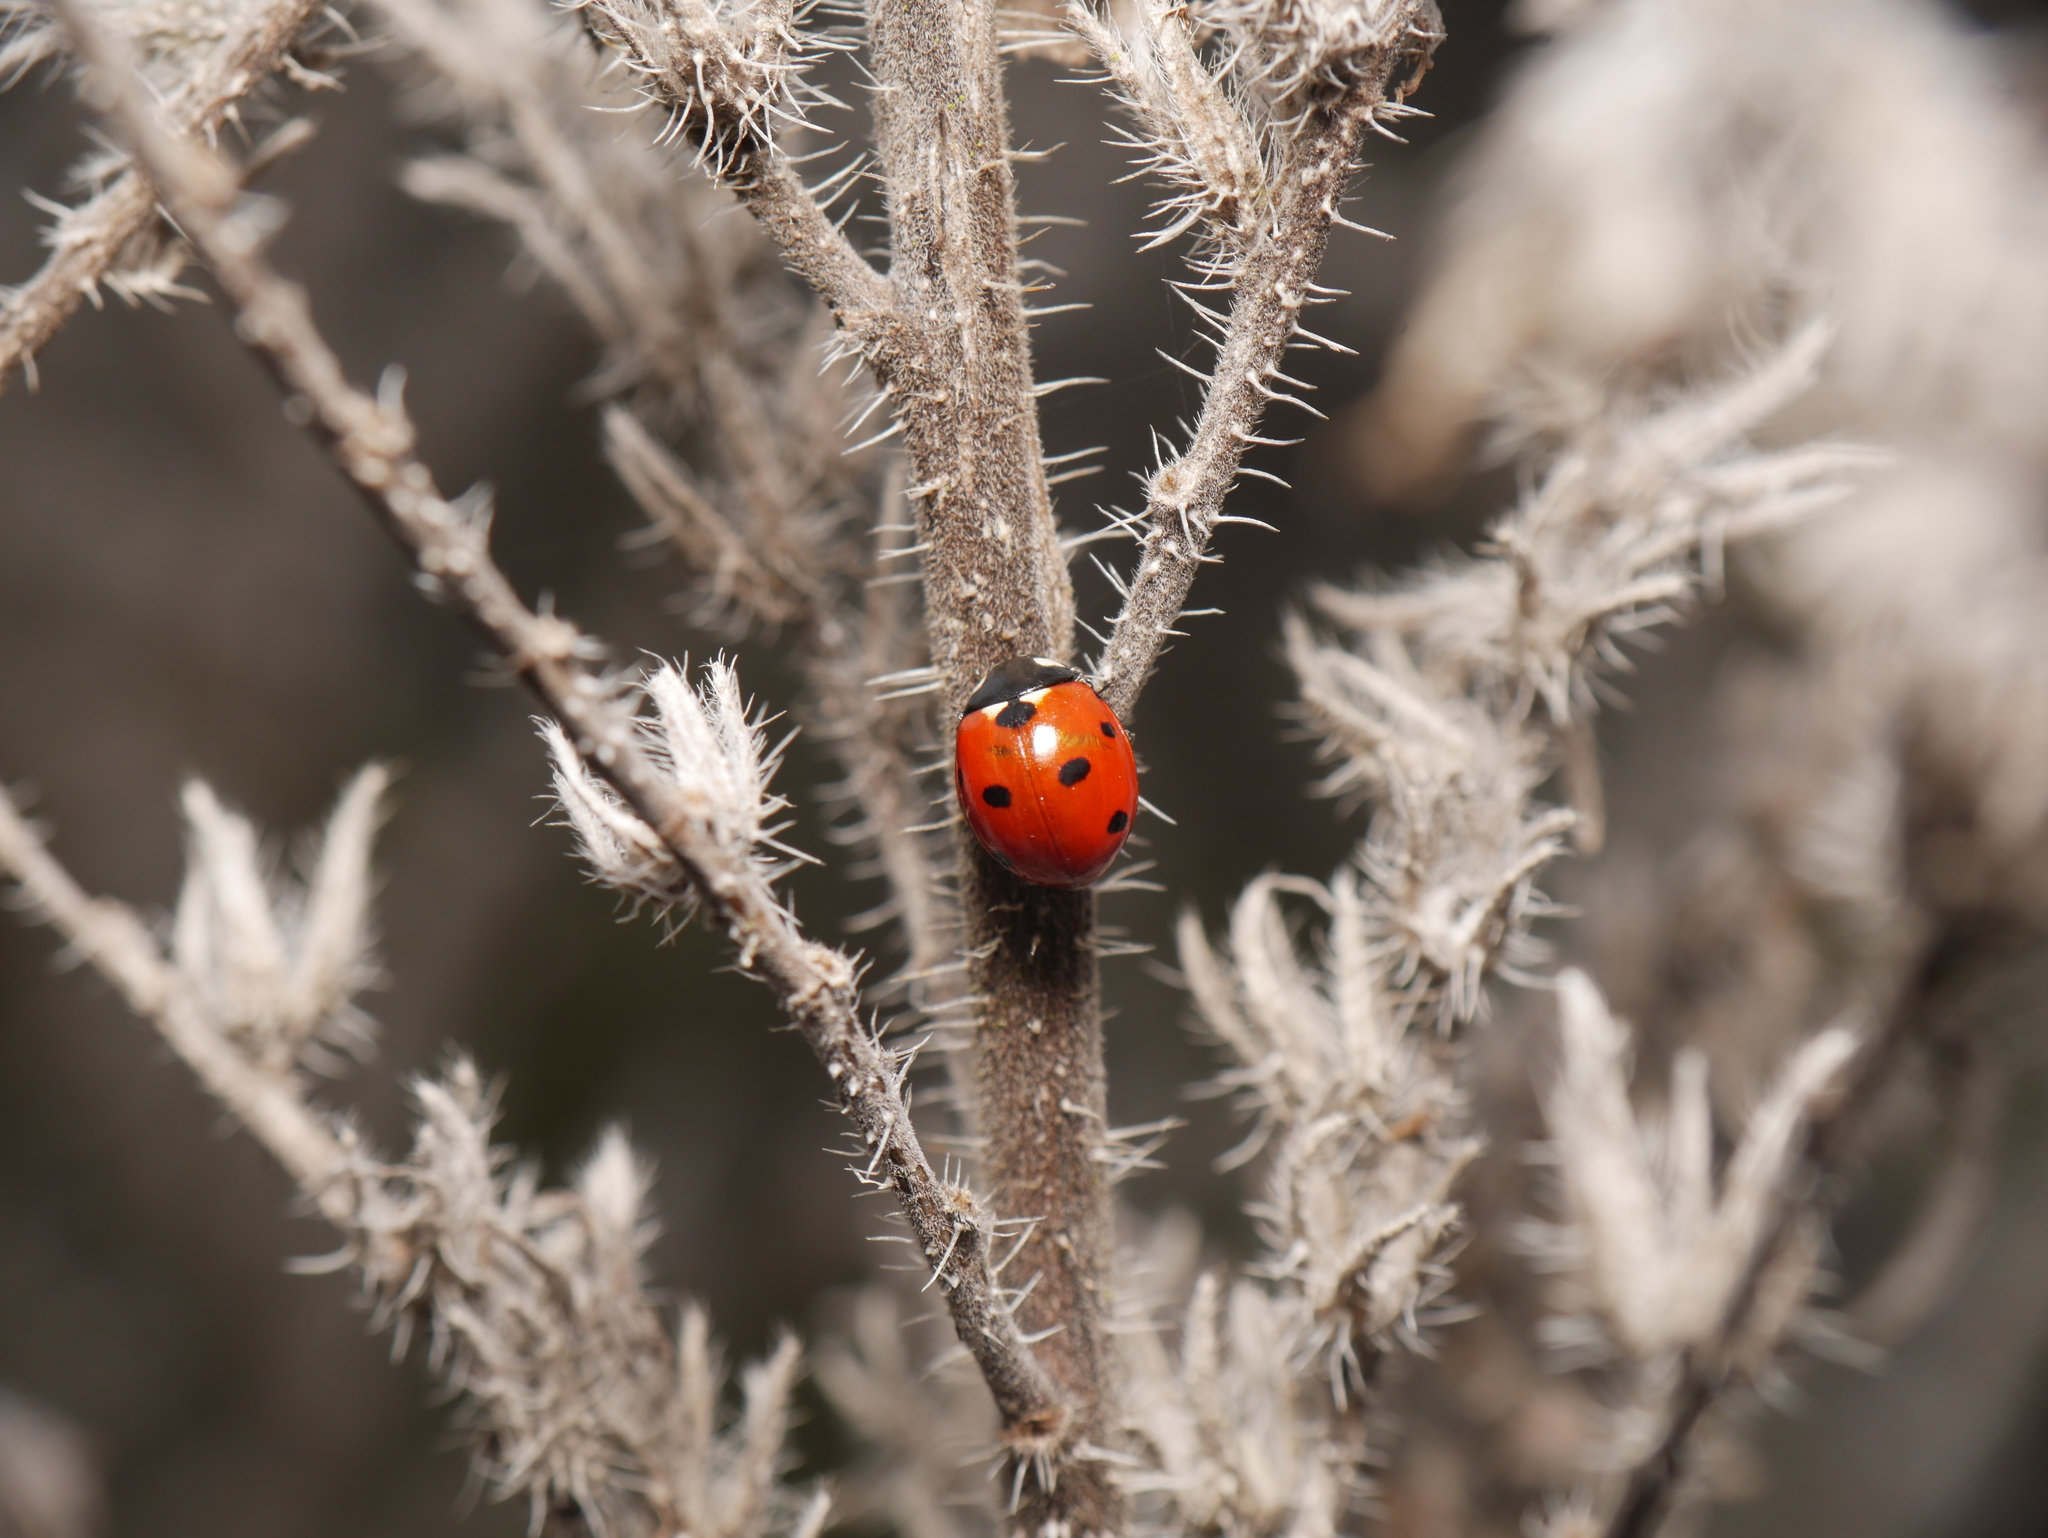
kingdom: Animalia
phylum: Arthropoda
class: Insecta
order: Coleoptera
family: Coccinellidae
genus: Coccinella
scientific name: Coccinella septempunctata
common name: Sevenspotted lady beetle
